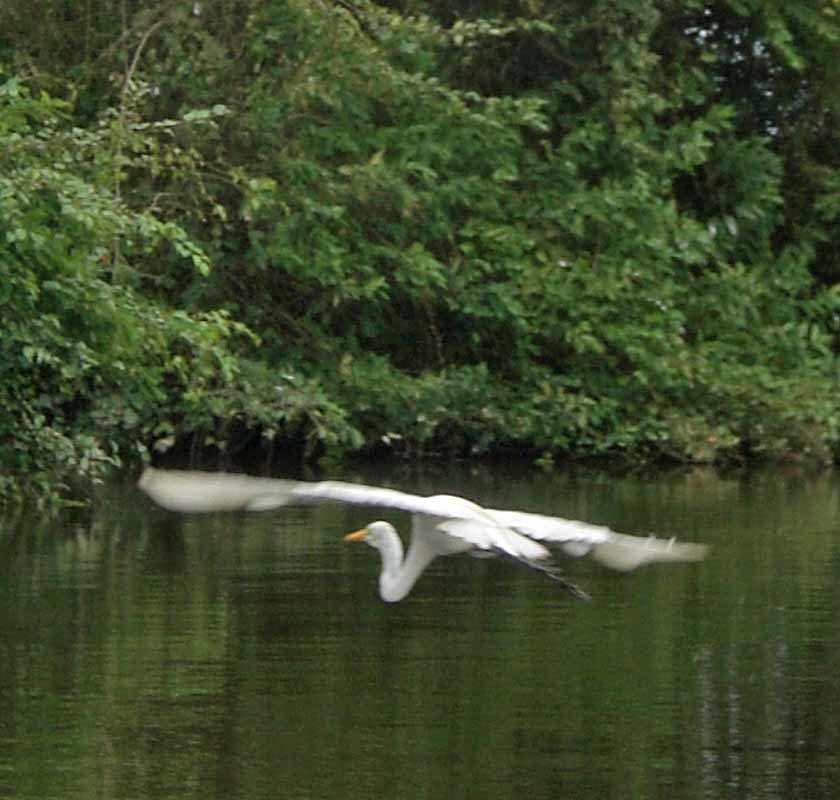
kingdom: Animalia
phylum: Chordata
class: Aves
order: Pelecaniformes
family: Ardeidae
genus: Ardea
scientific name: Ardea alba
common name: Great egret
